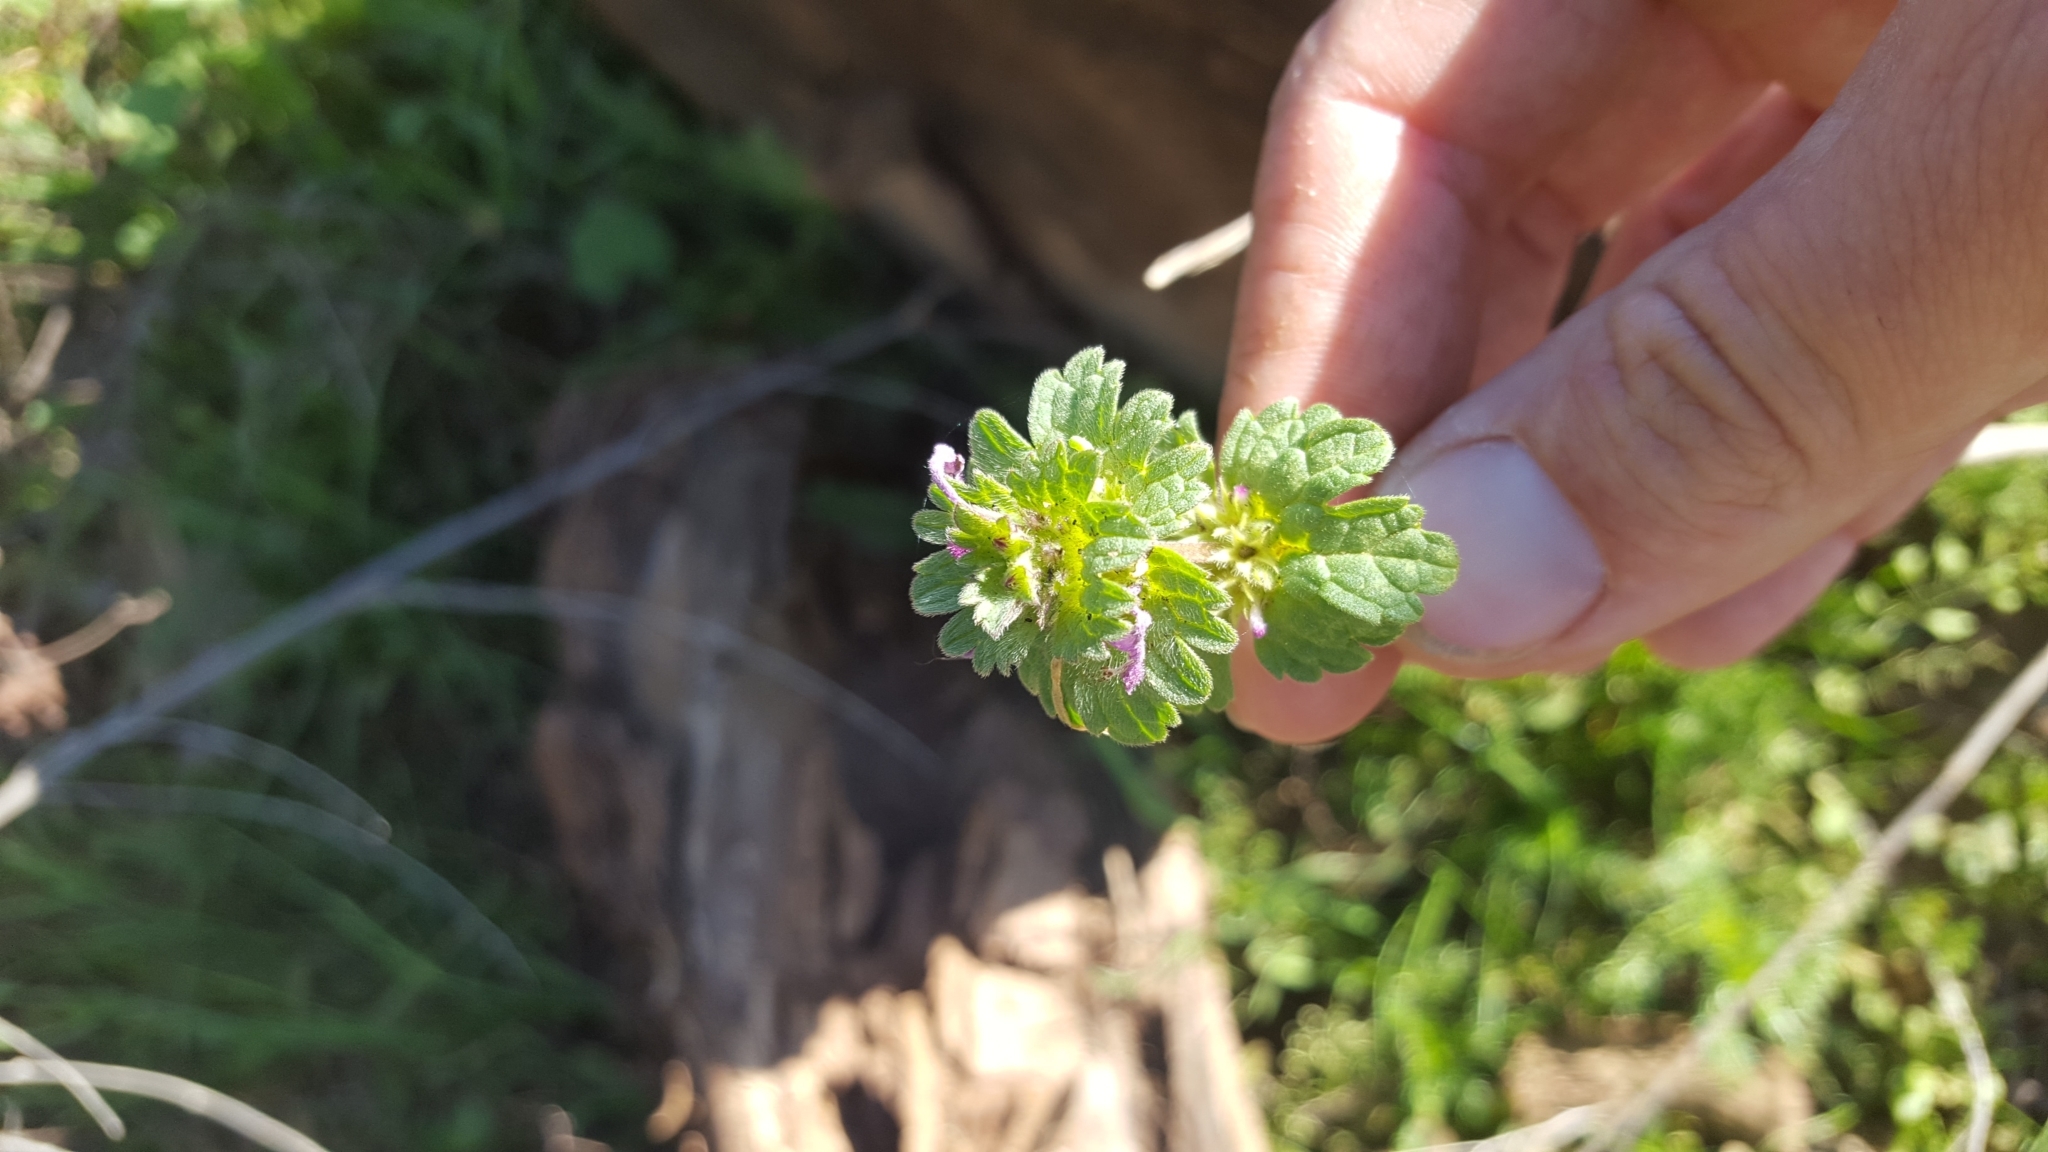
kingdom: Plantae
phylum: Tracheophyta
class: Magnoliopsida
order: Lamiales
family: Lamiaceae
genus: Lamium
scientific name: Lamium amplexicaule
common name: Henbit dead-nettle
